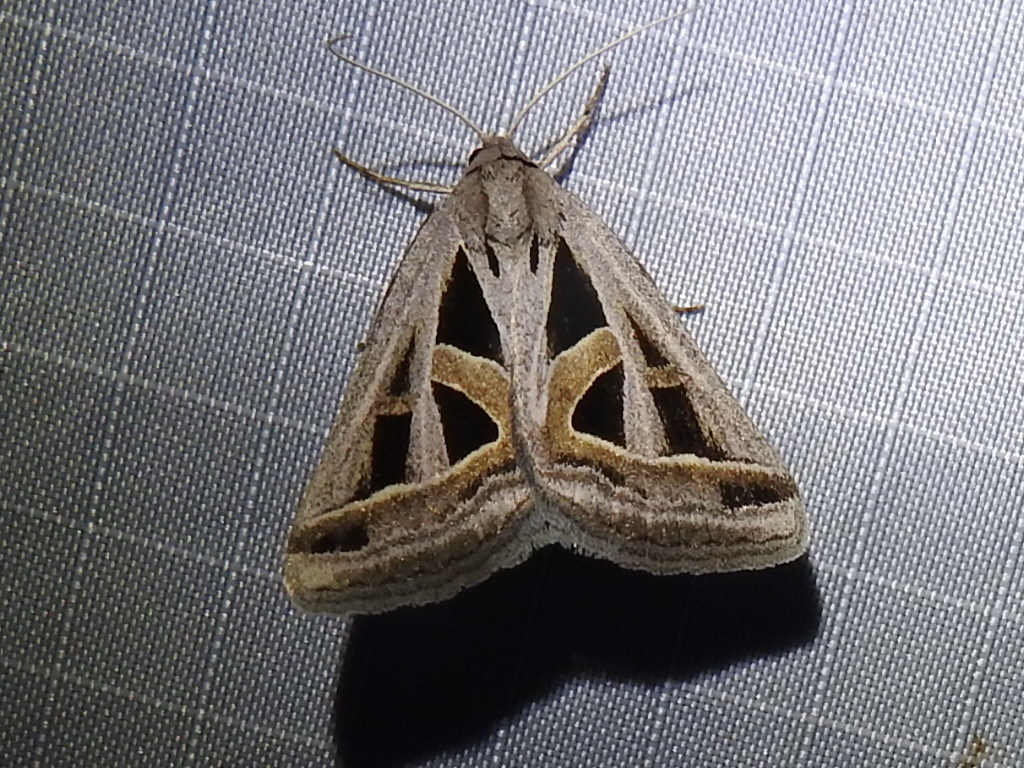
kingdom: Animalia
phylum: Arthropoda
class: Insecta
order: Lepidoptera
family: Erebidae
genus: Callistege
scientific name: Callistege diagonalis
